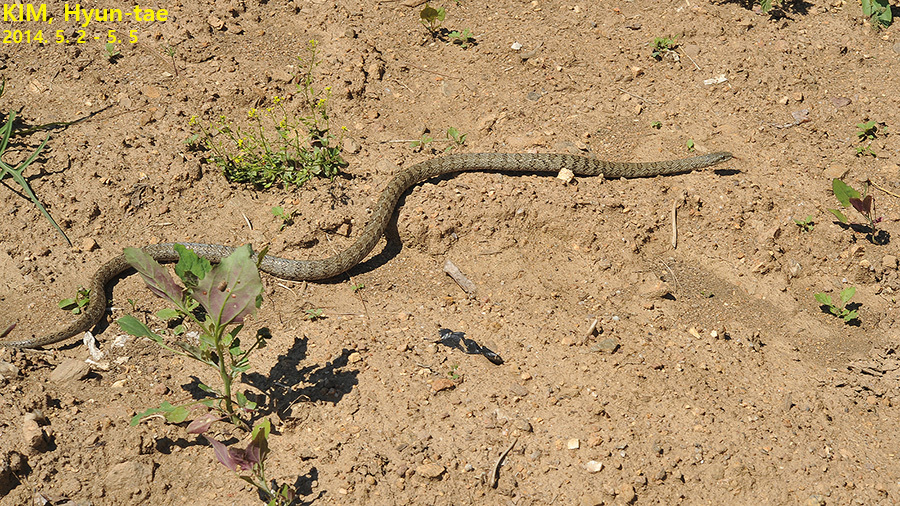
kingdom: Animalia
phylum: Chordata
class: Squamata
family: Colubridae
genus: Elaphe
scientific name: Elaphe dione
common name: Dione ratsnake
